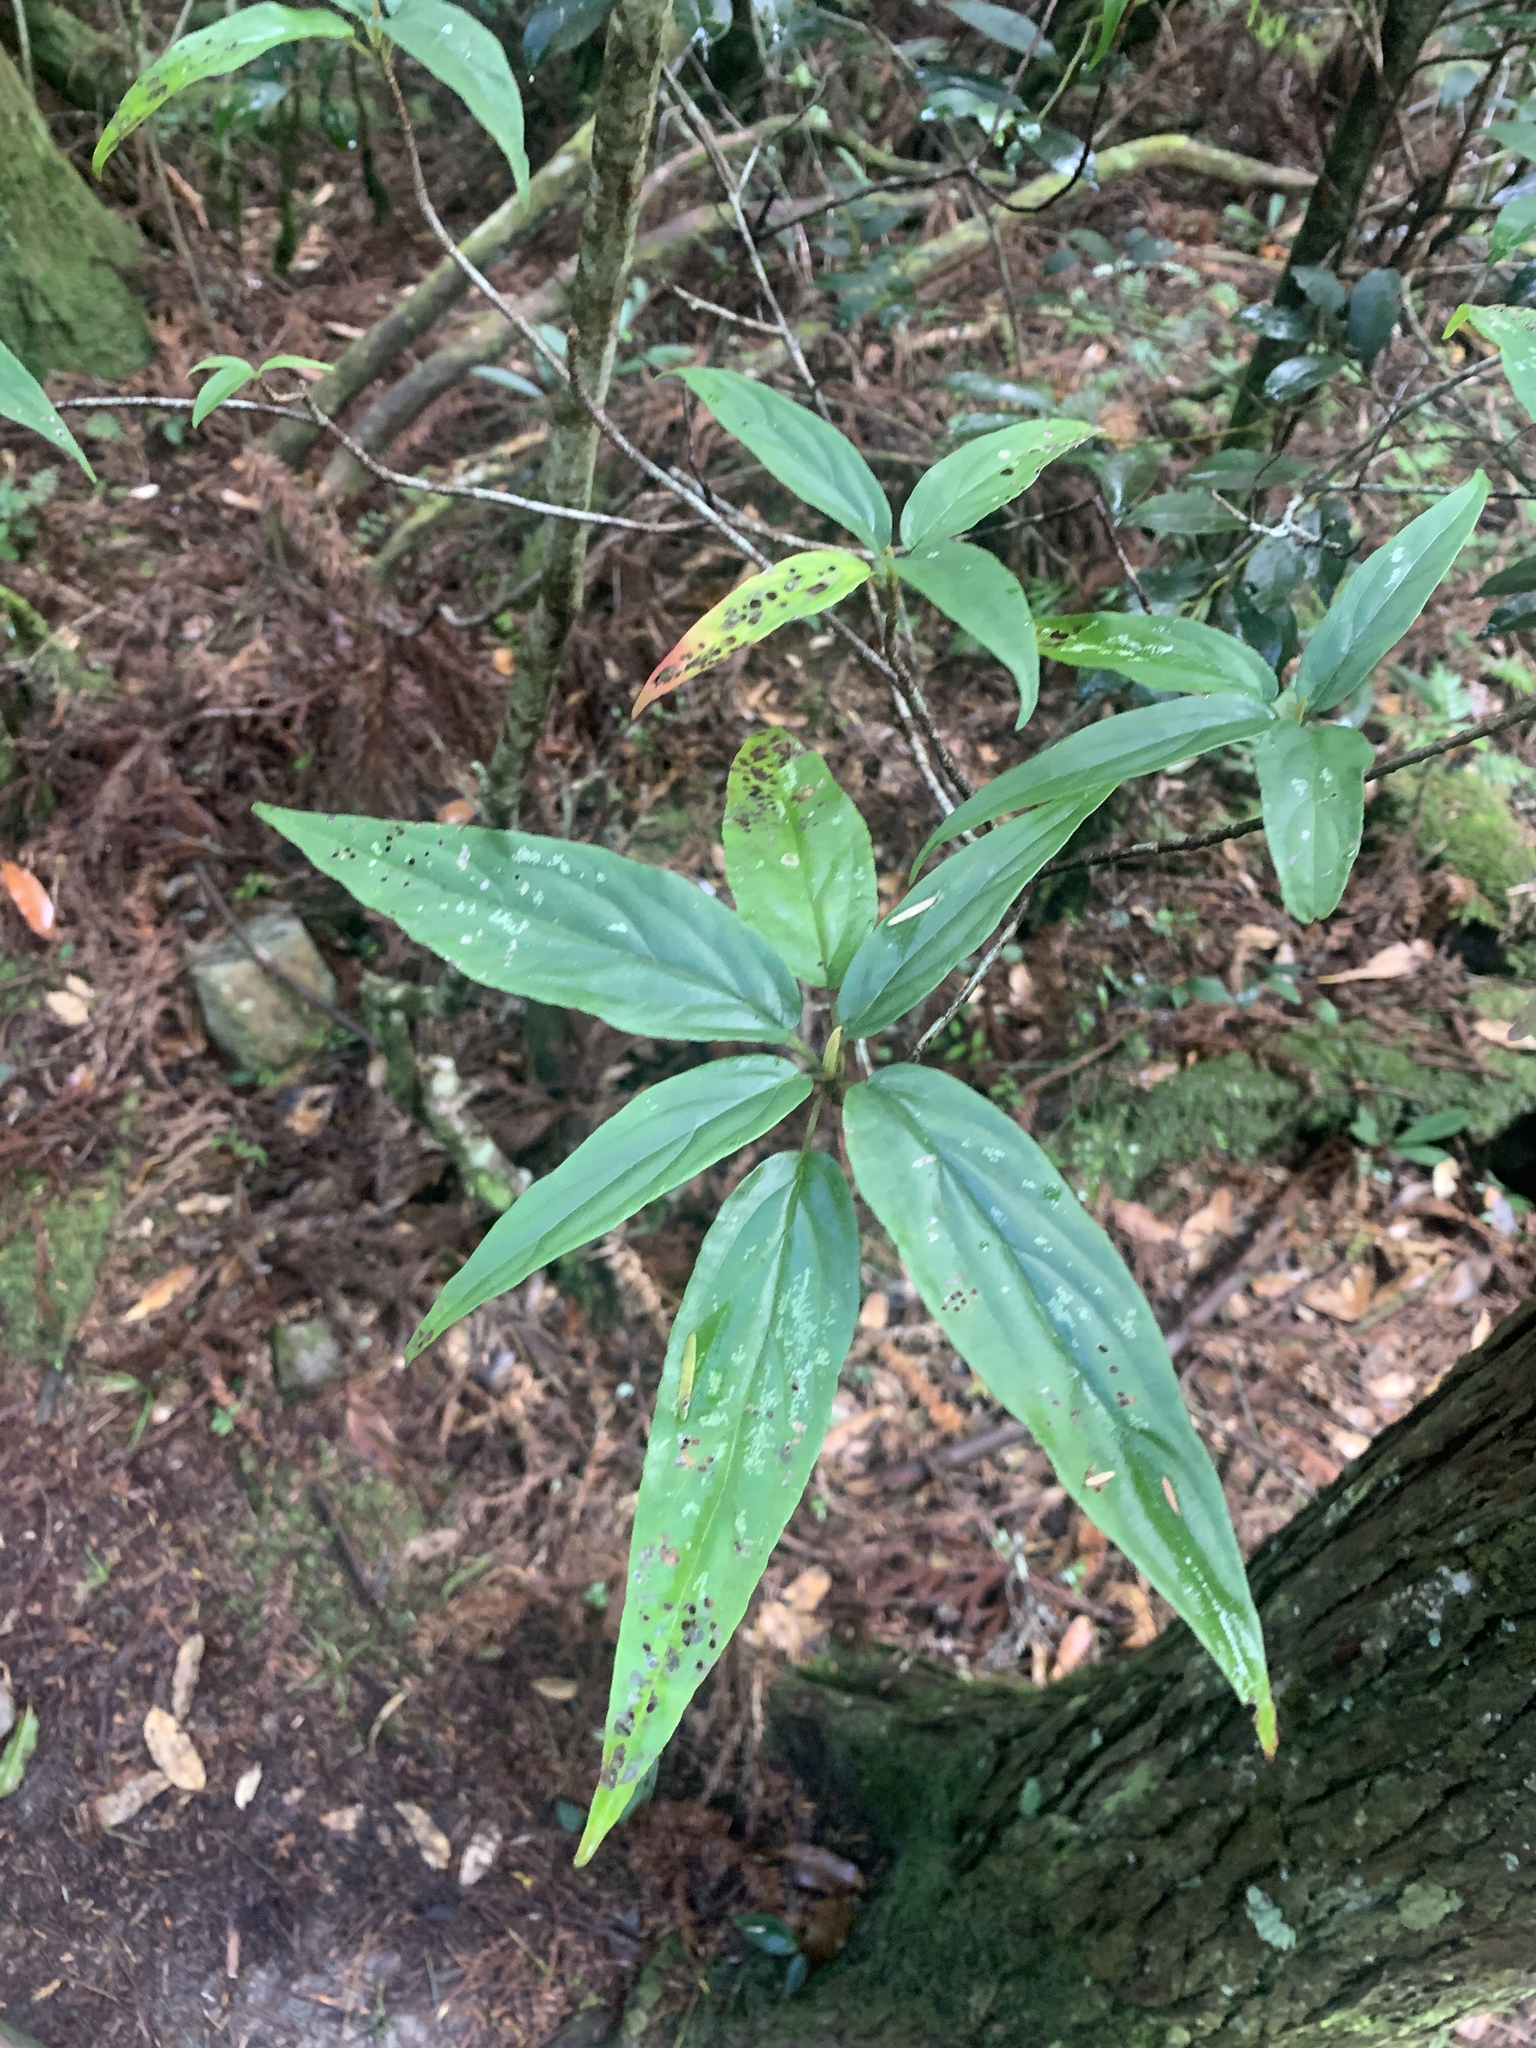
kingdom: Plantae
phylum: Tracheophyta
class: Magnoliopsida
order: Dipsacales
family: Viburnaceae
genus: Viburnum
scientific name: Viburnum urceolatum
